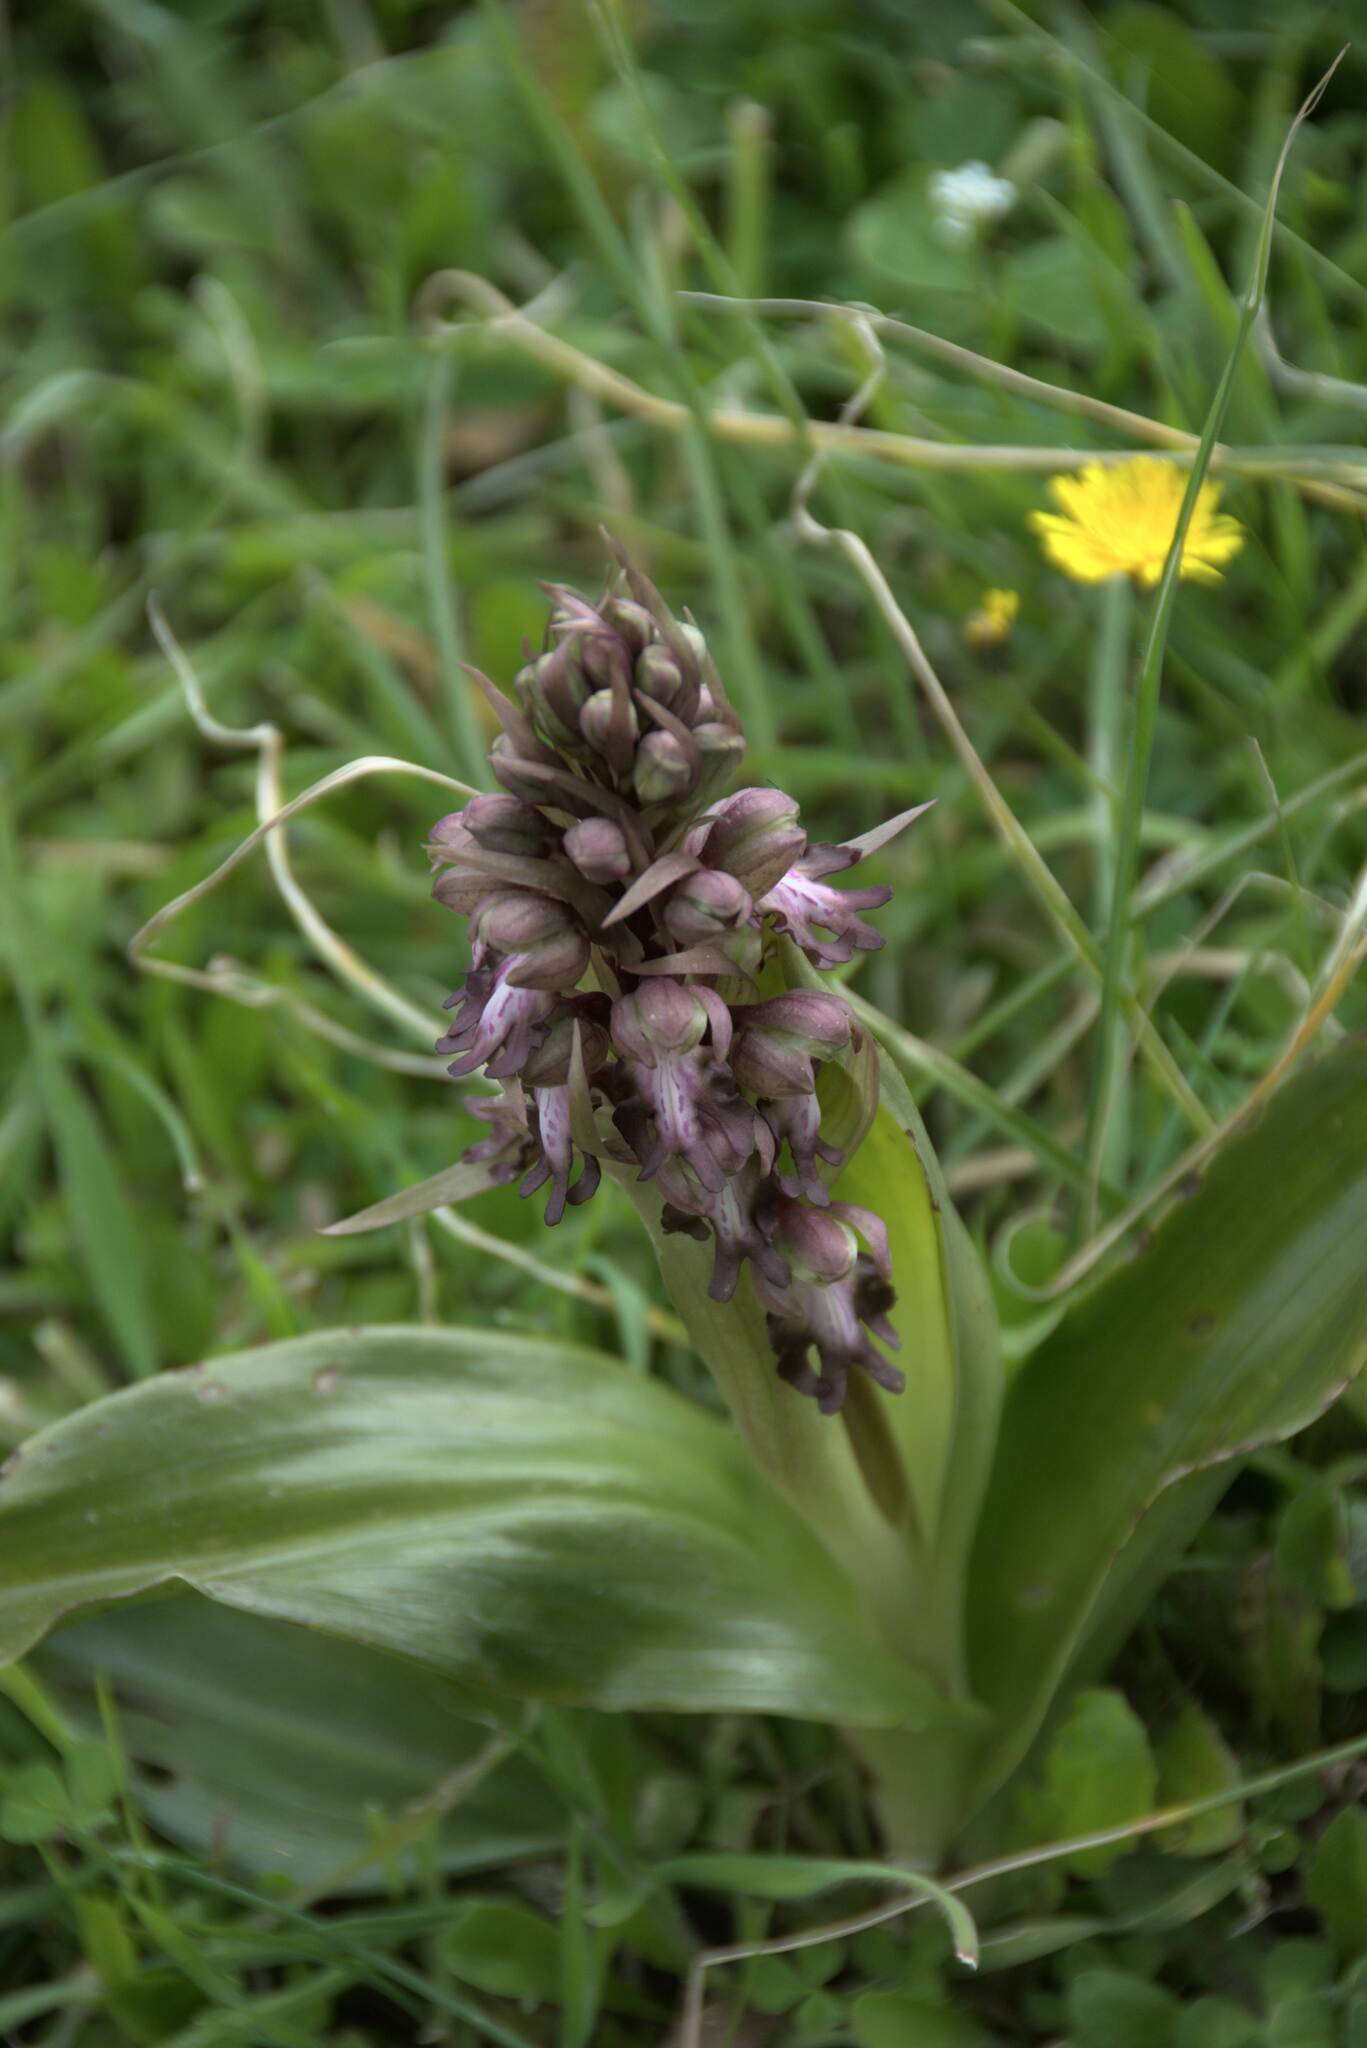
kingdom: Plantae
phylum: Tracheophyta
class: Liliopsida
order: Asparagales
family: Orchidaceae
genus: Himantoglossum
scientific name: Himantoglossum robertianum
